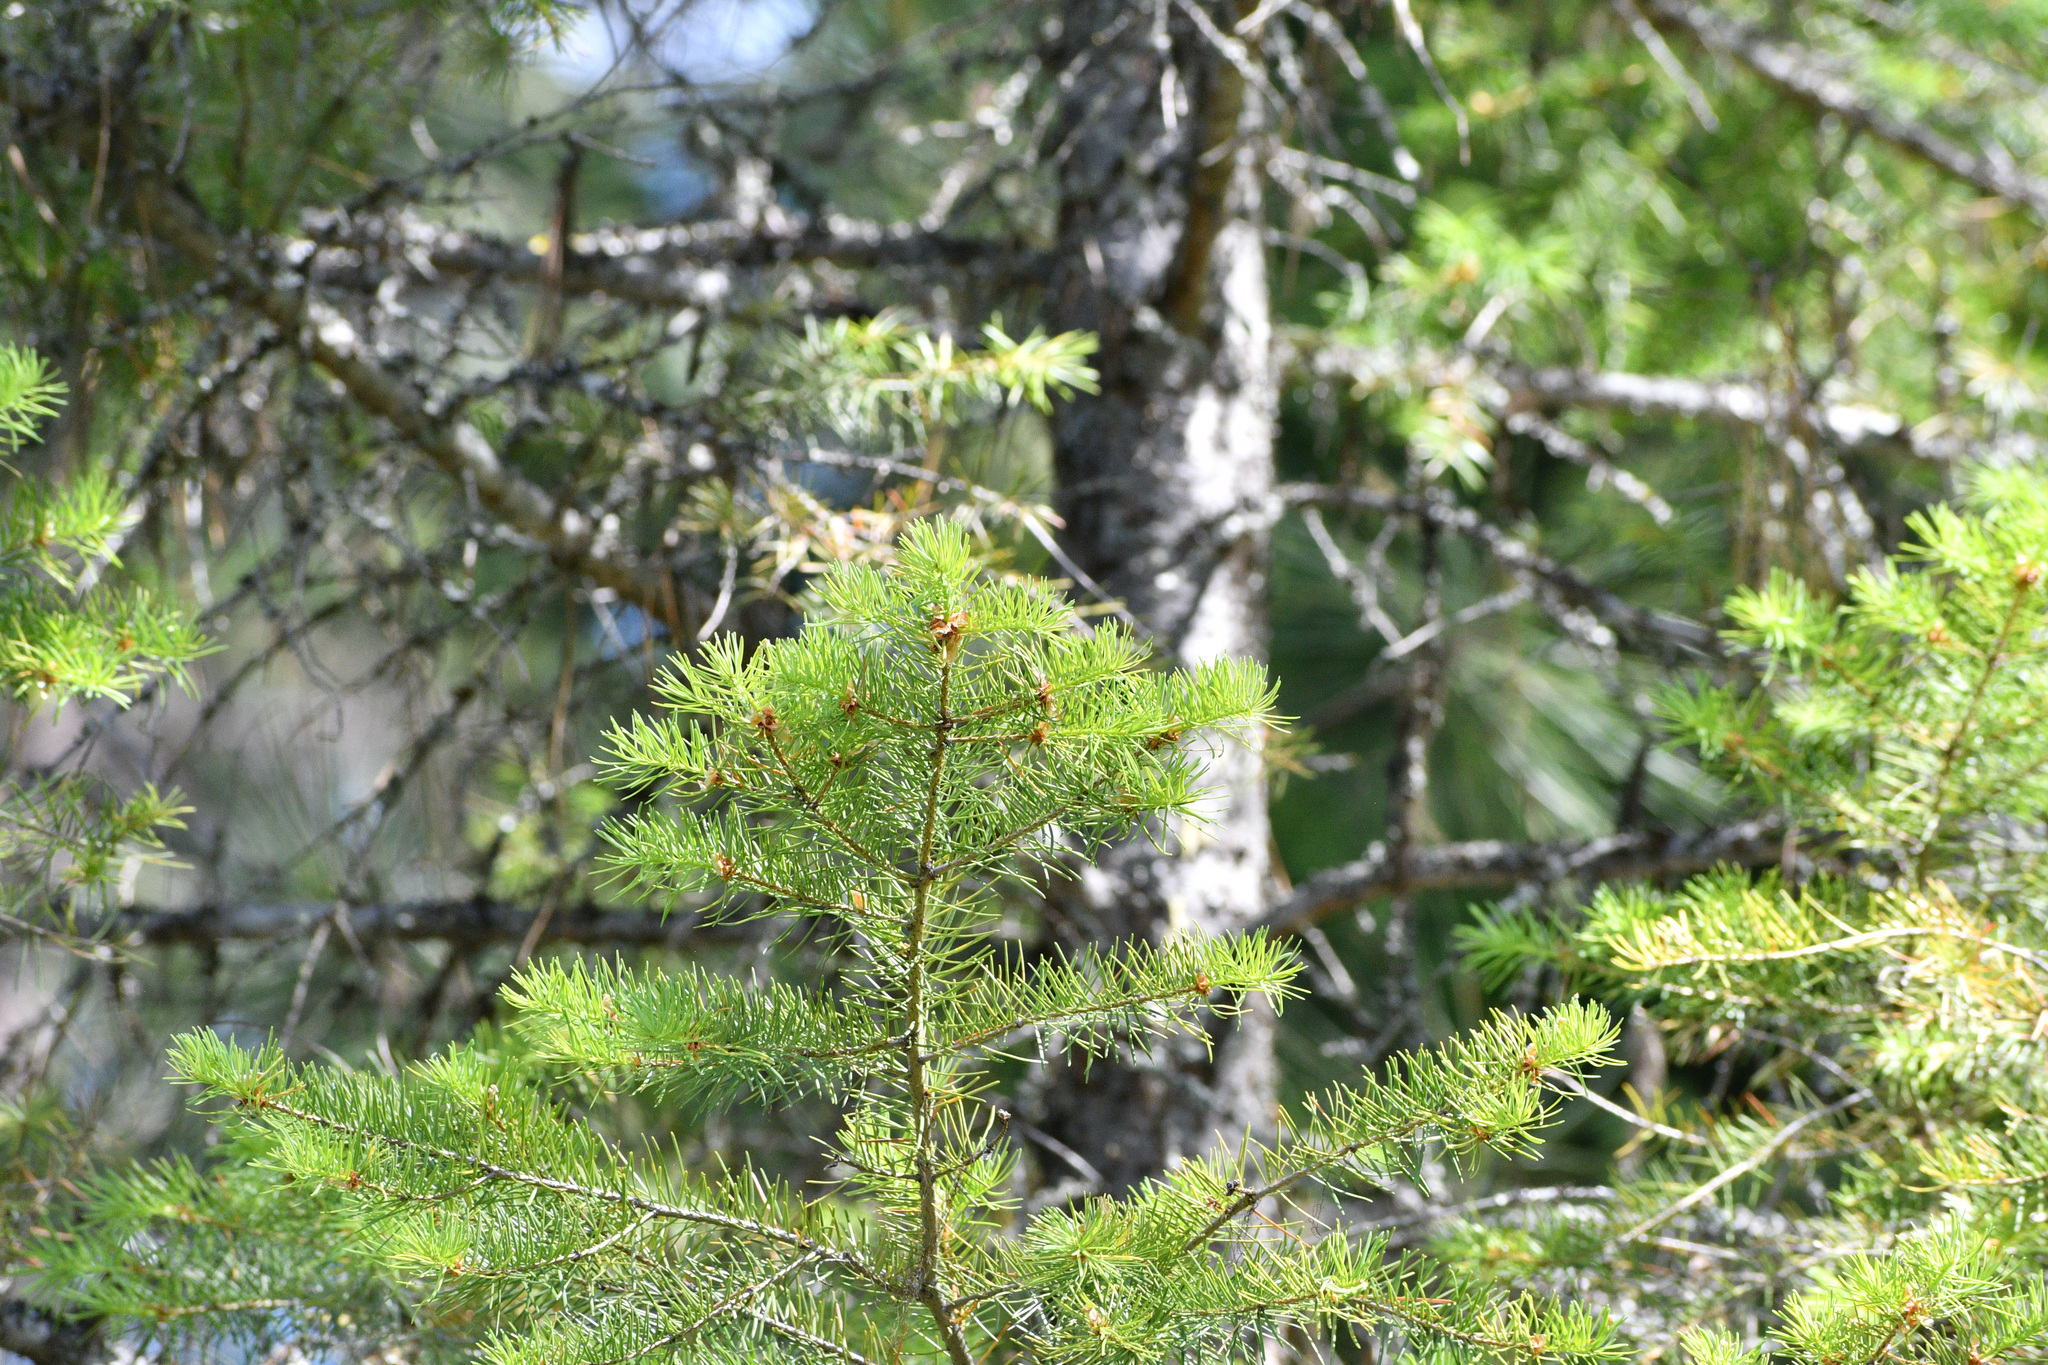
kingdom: Plantae
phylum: Tracheophyta
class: Pinopsida
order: Pinales
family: Pinaceae
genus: Pseudotsuga
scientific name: Pseudotsuga menziesii
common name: Douglas fir
